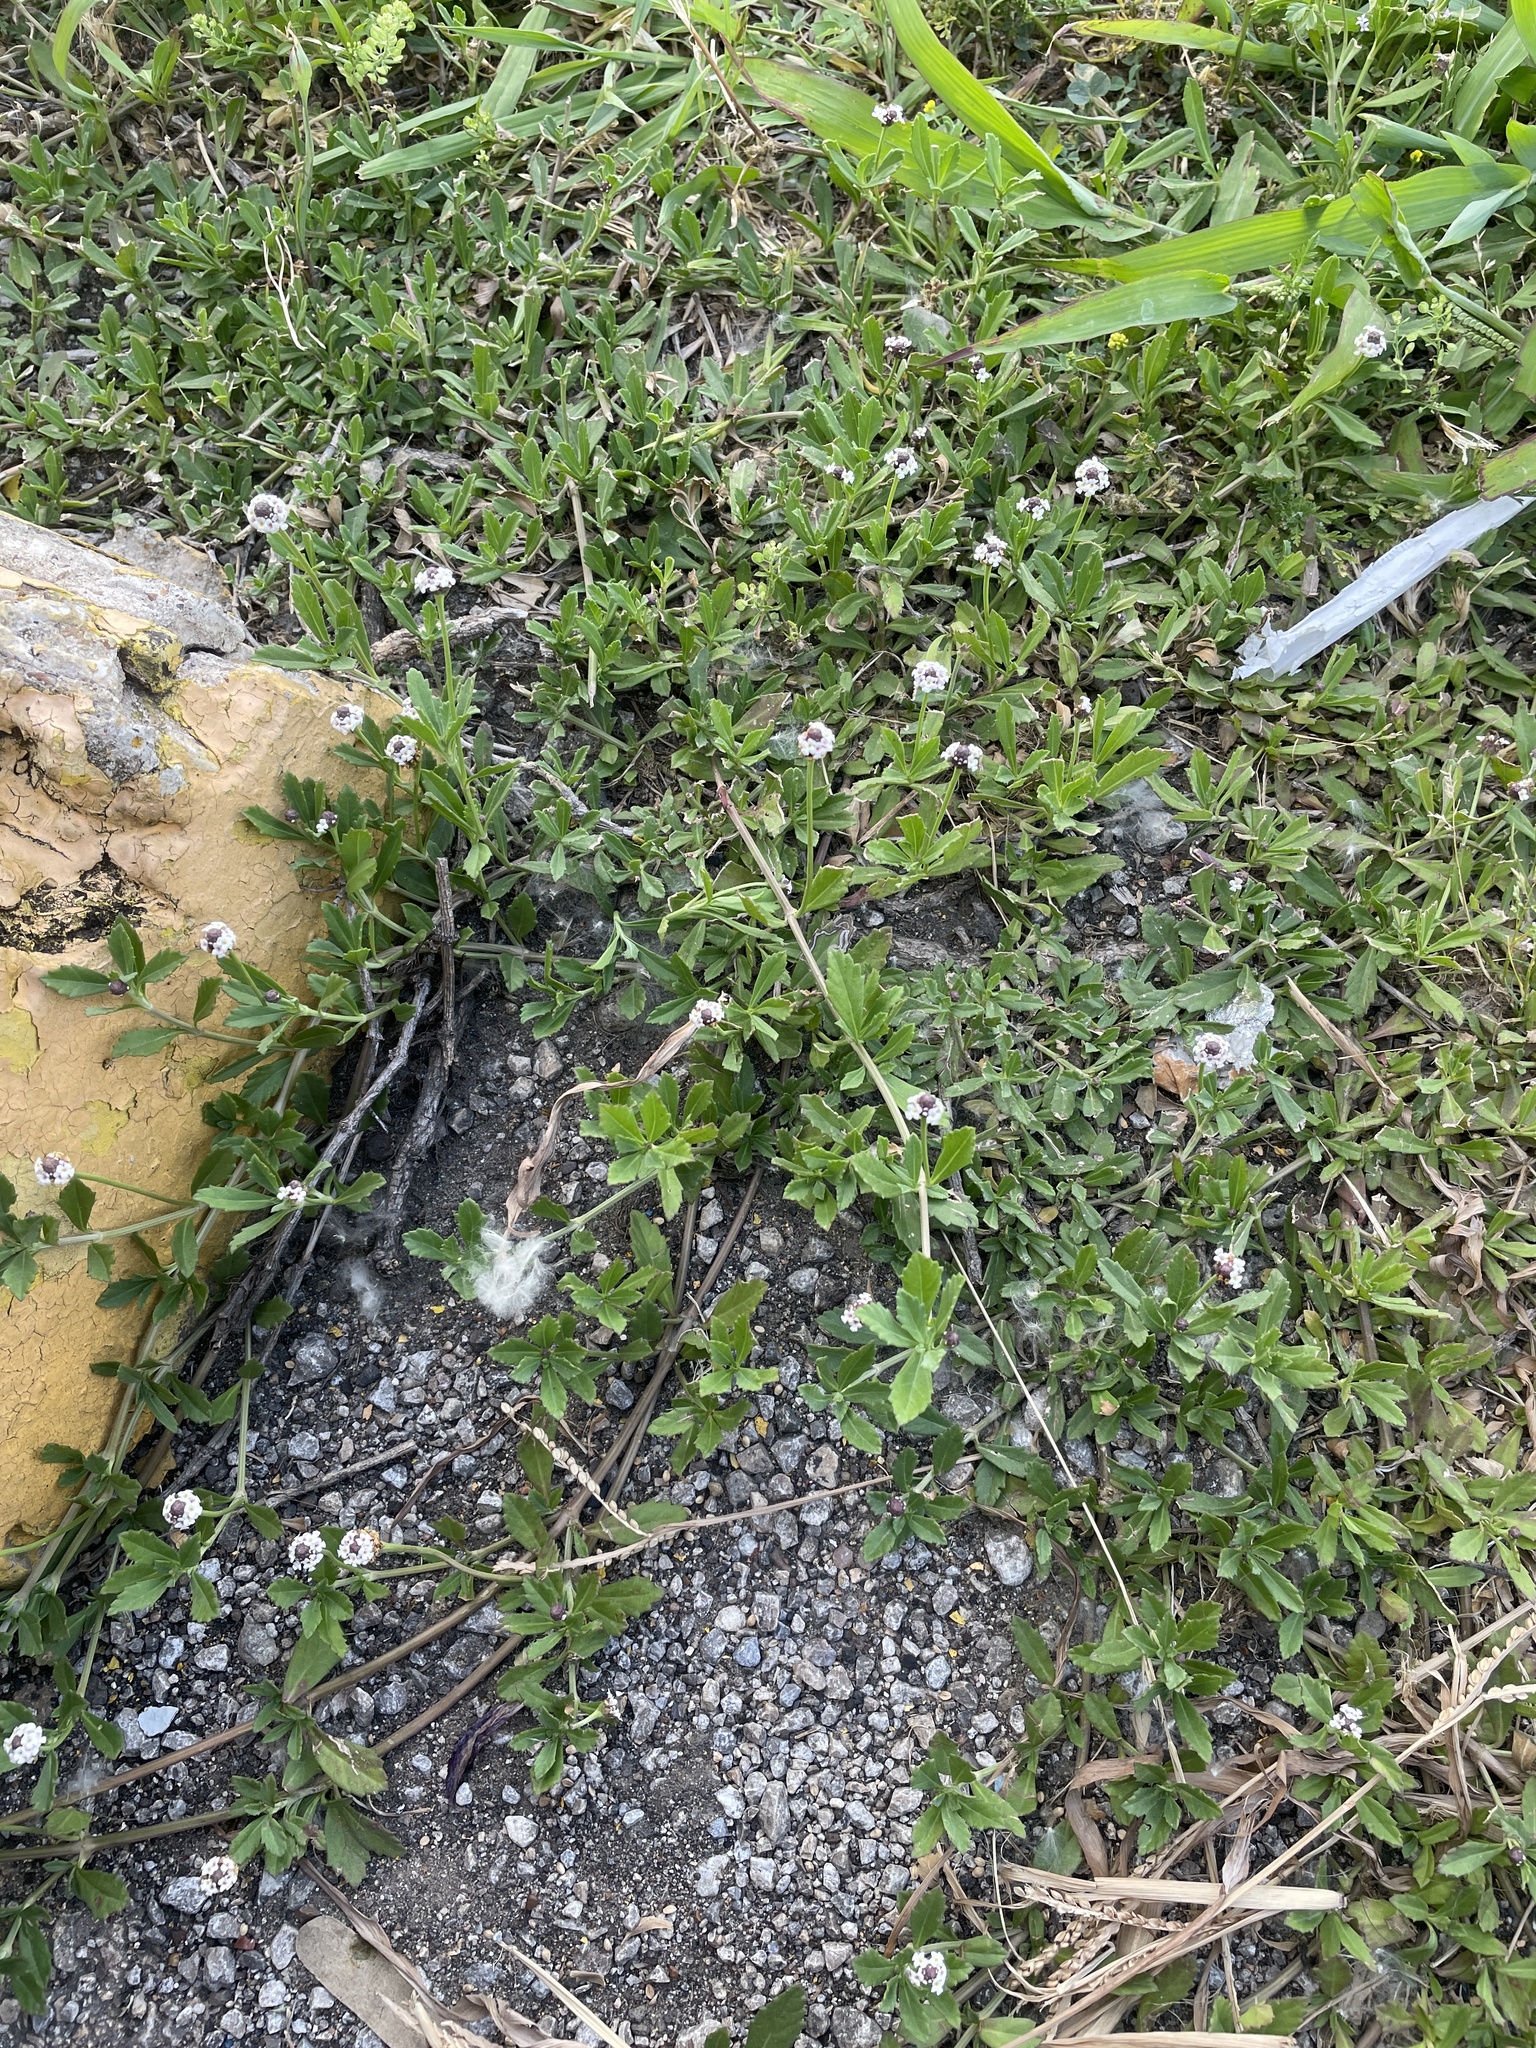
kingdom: Plantae
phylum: Tracheophyta
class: Magnoliopsida
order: Lamiales
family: Verbenaceae
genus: Phyla
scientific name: Phyla nodiflora
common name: Frogfruit
